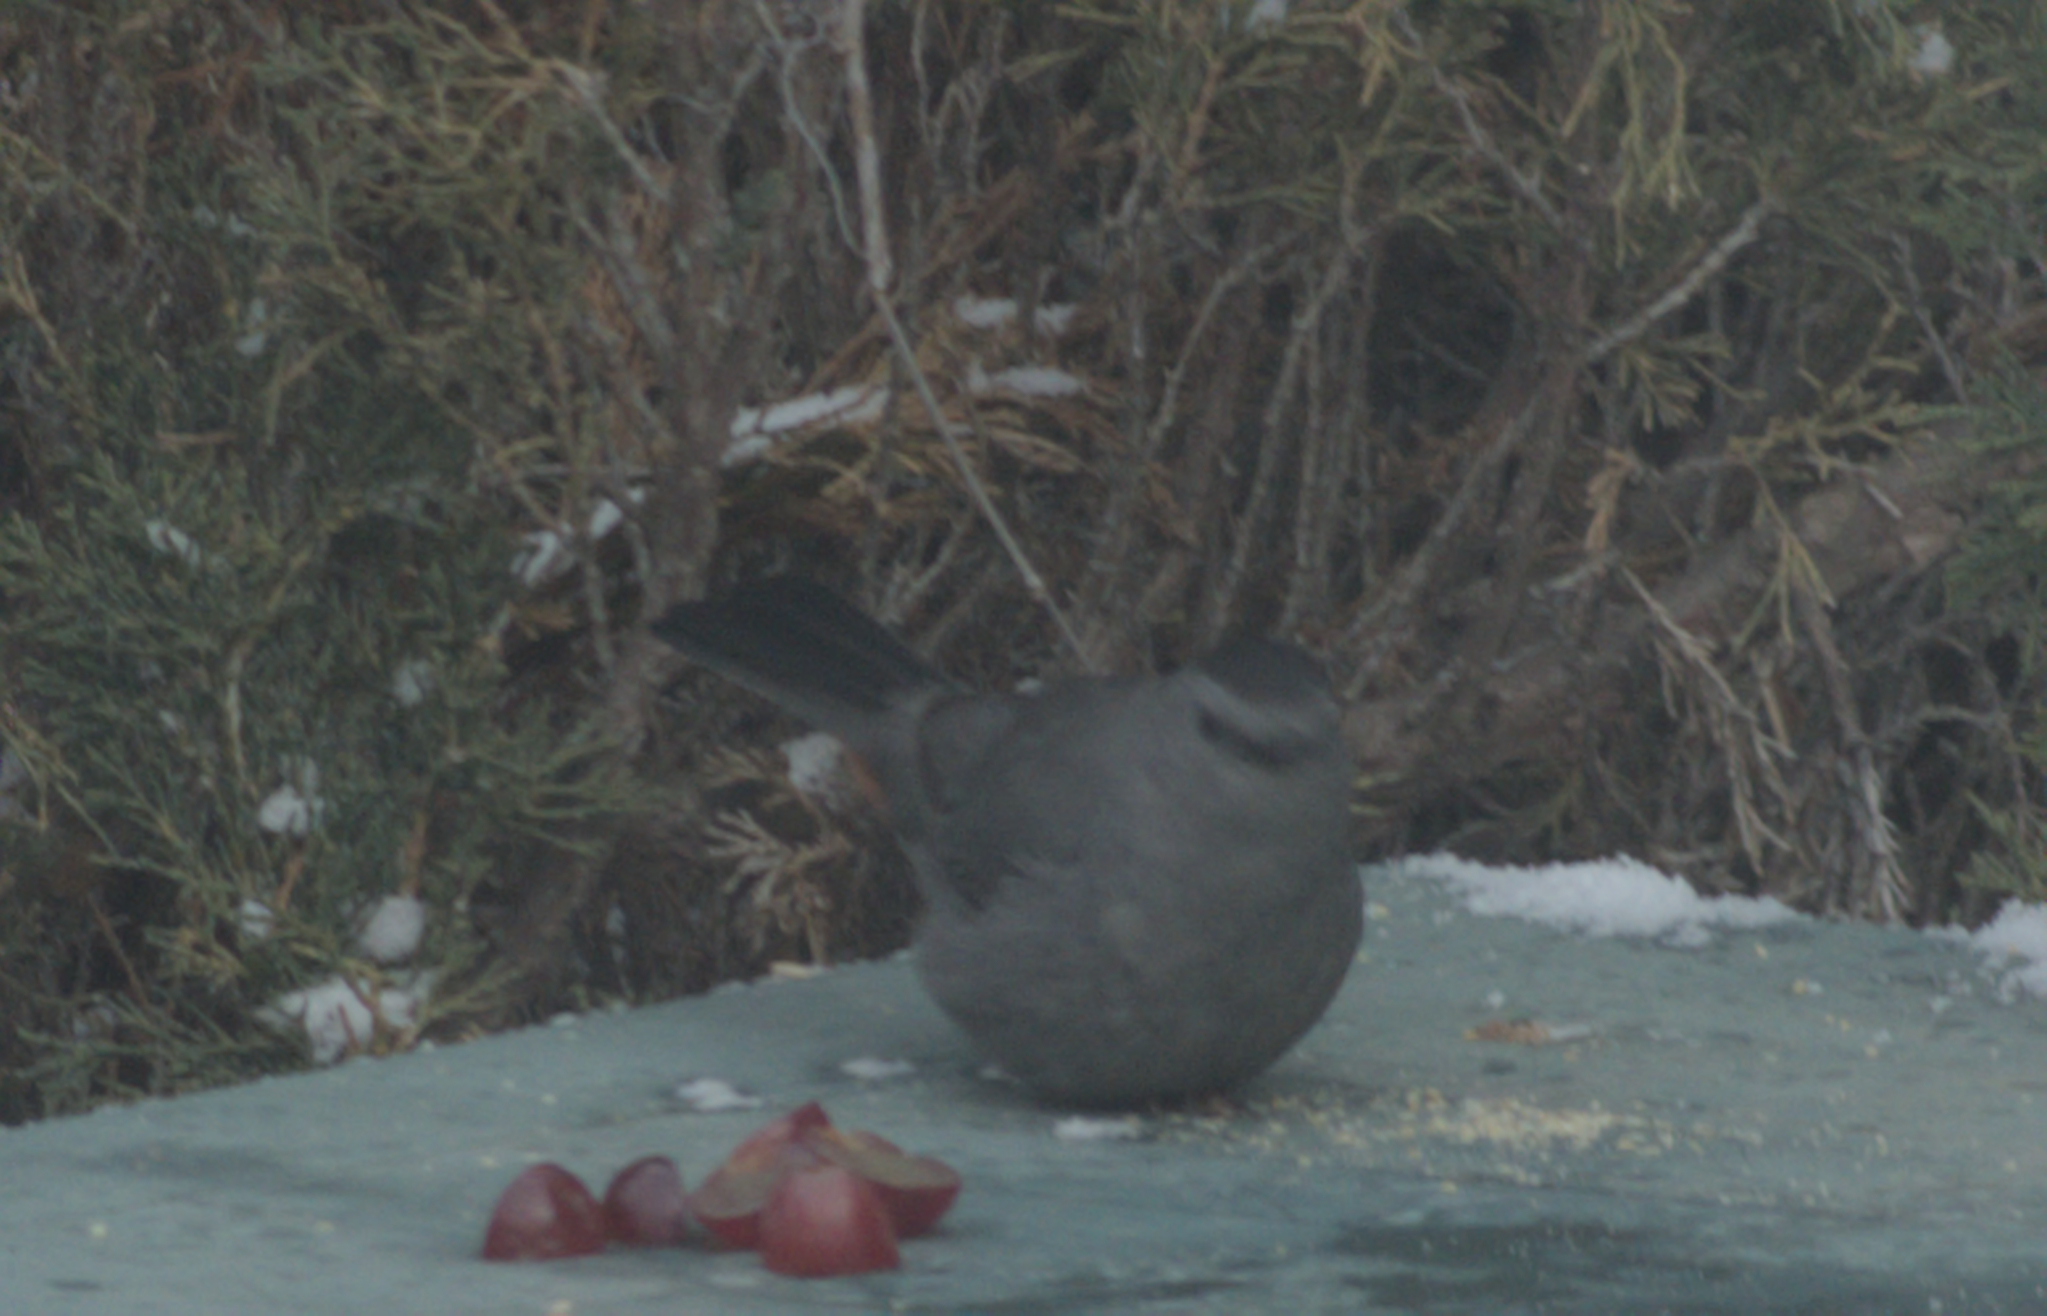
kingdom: Animalia
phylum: Chordata
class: Aves
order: Passeriformes
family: Mimidae
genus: Dumetella
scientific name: Dumetella carolinensis
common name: Gray catbird
